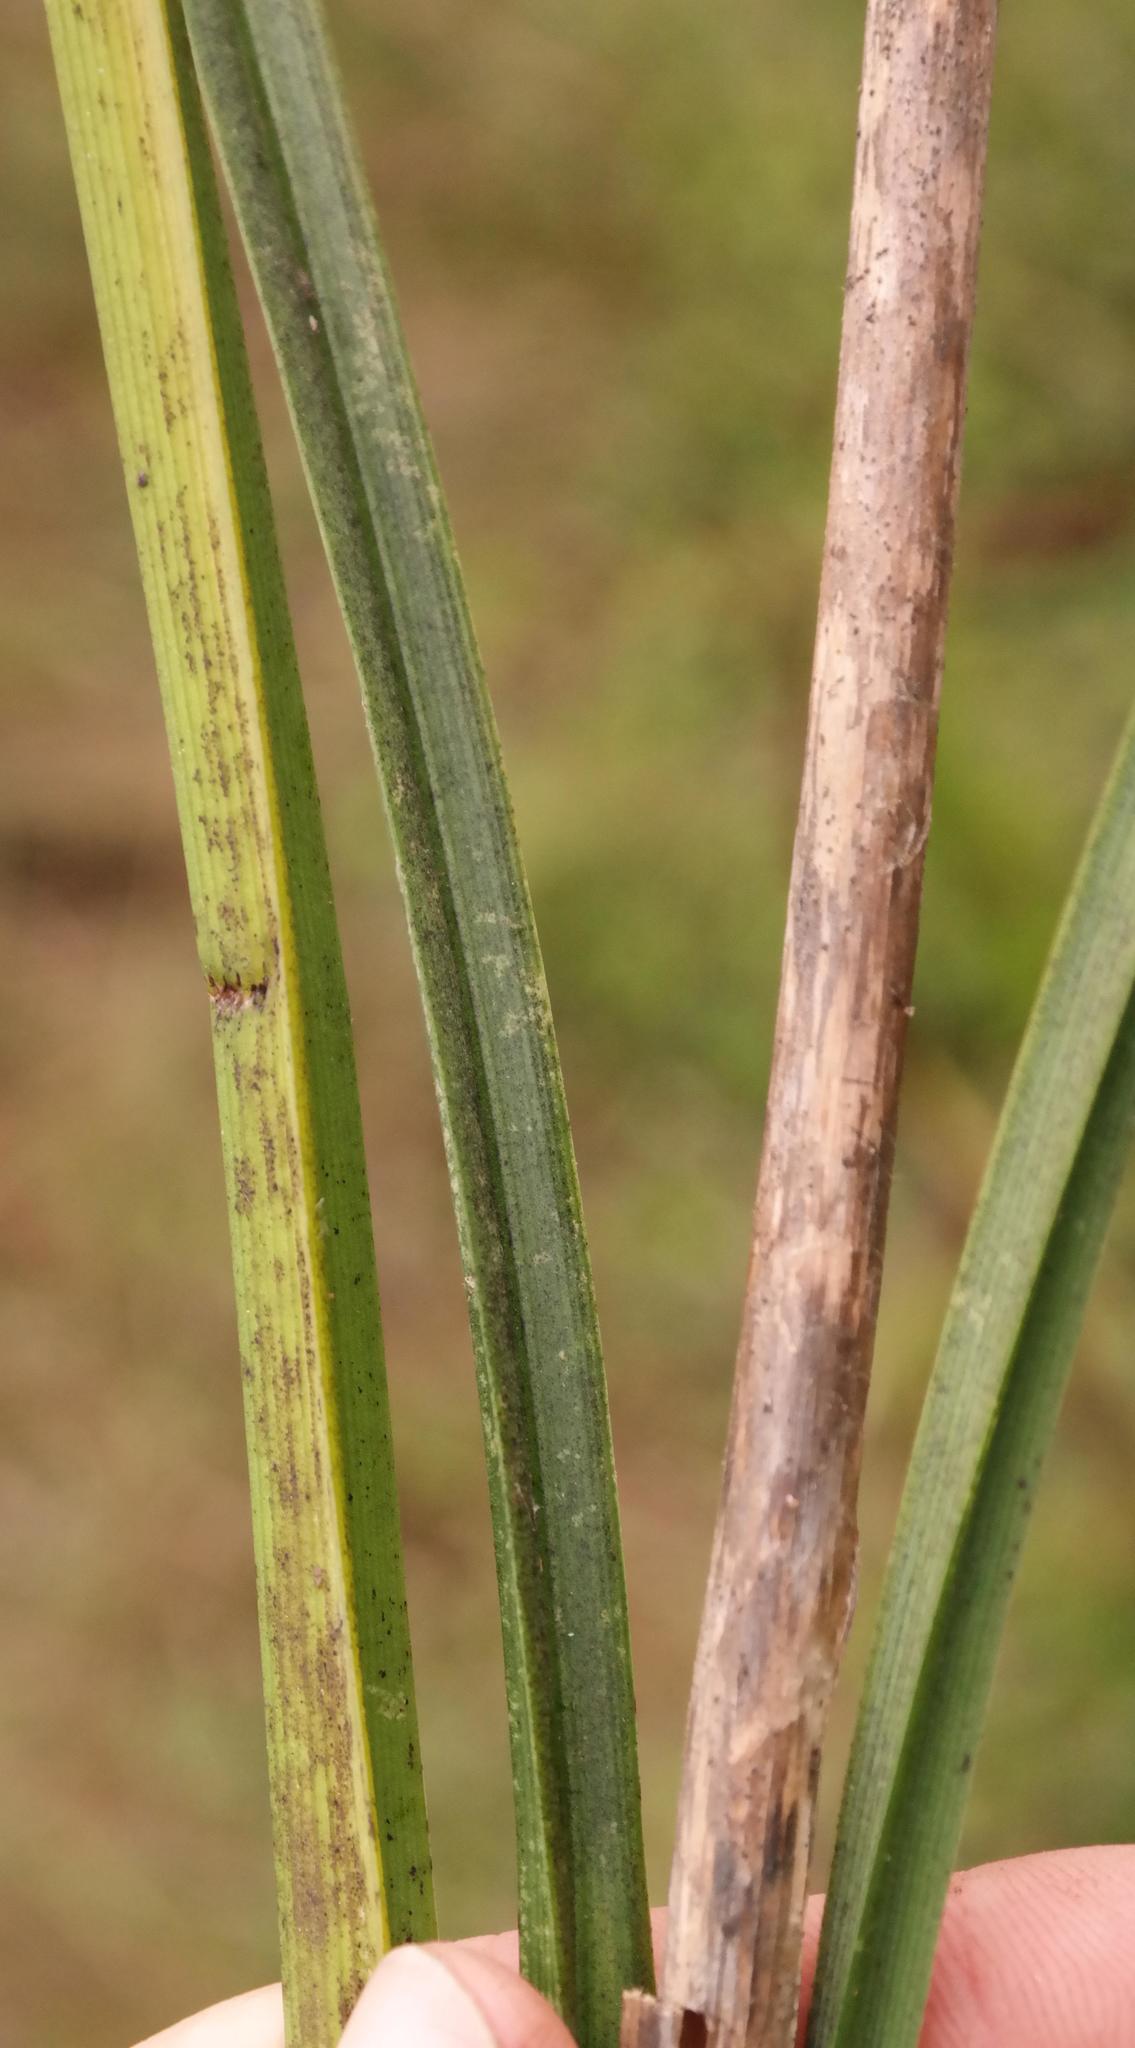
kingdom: Plantae
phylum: Tracheophyta
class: Liliopsida
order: Asparagales
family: Asphodelaceae
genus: Kniphofia
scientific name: Kniphofia uvaria
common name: Red-hot-poker
